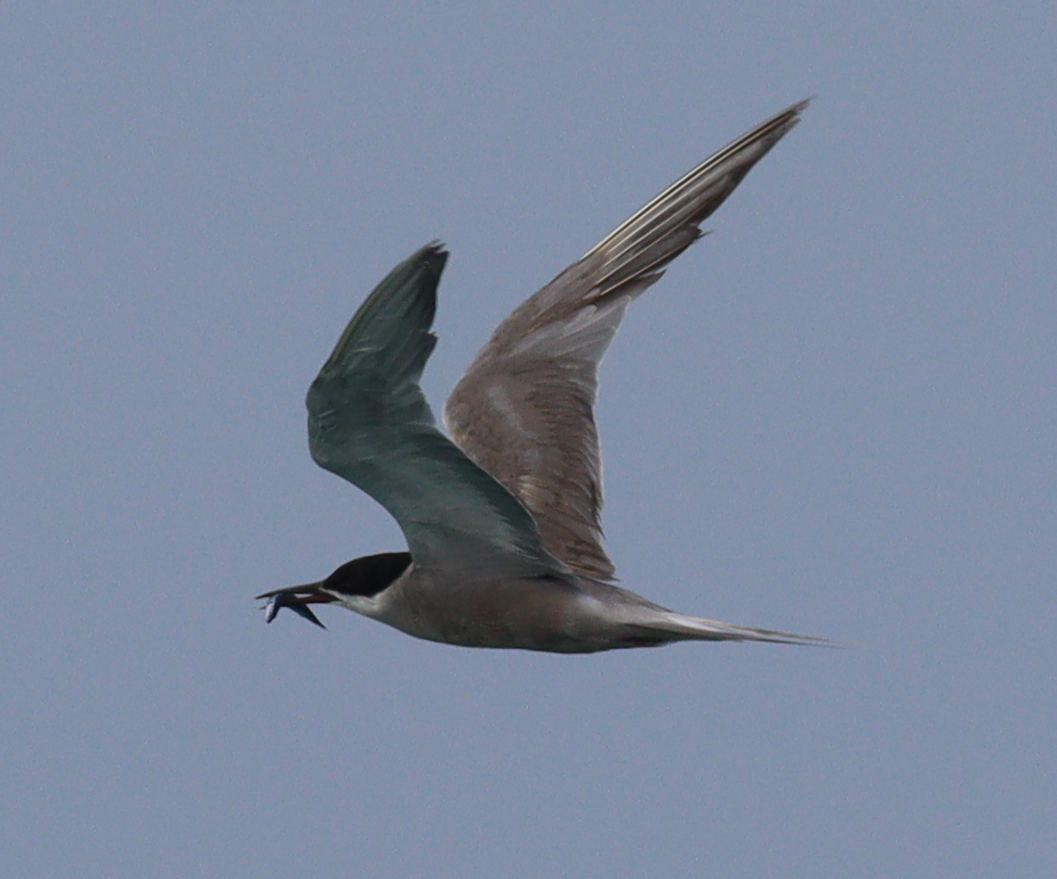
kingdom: Animalia
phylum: Chordata
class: Aves
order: Charadriiformes
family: Laridae
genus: Sterna
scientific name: Sterna repressa
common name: White-cheeked tern
